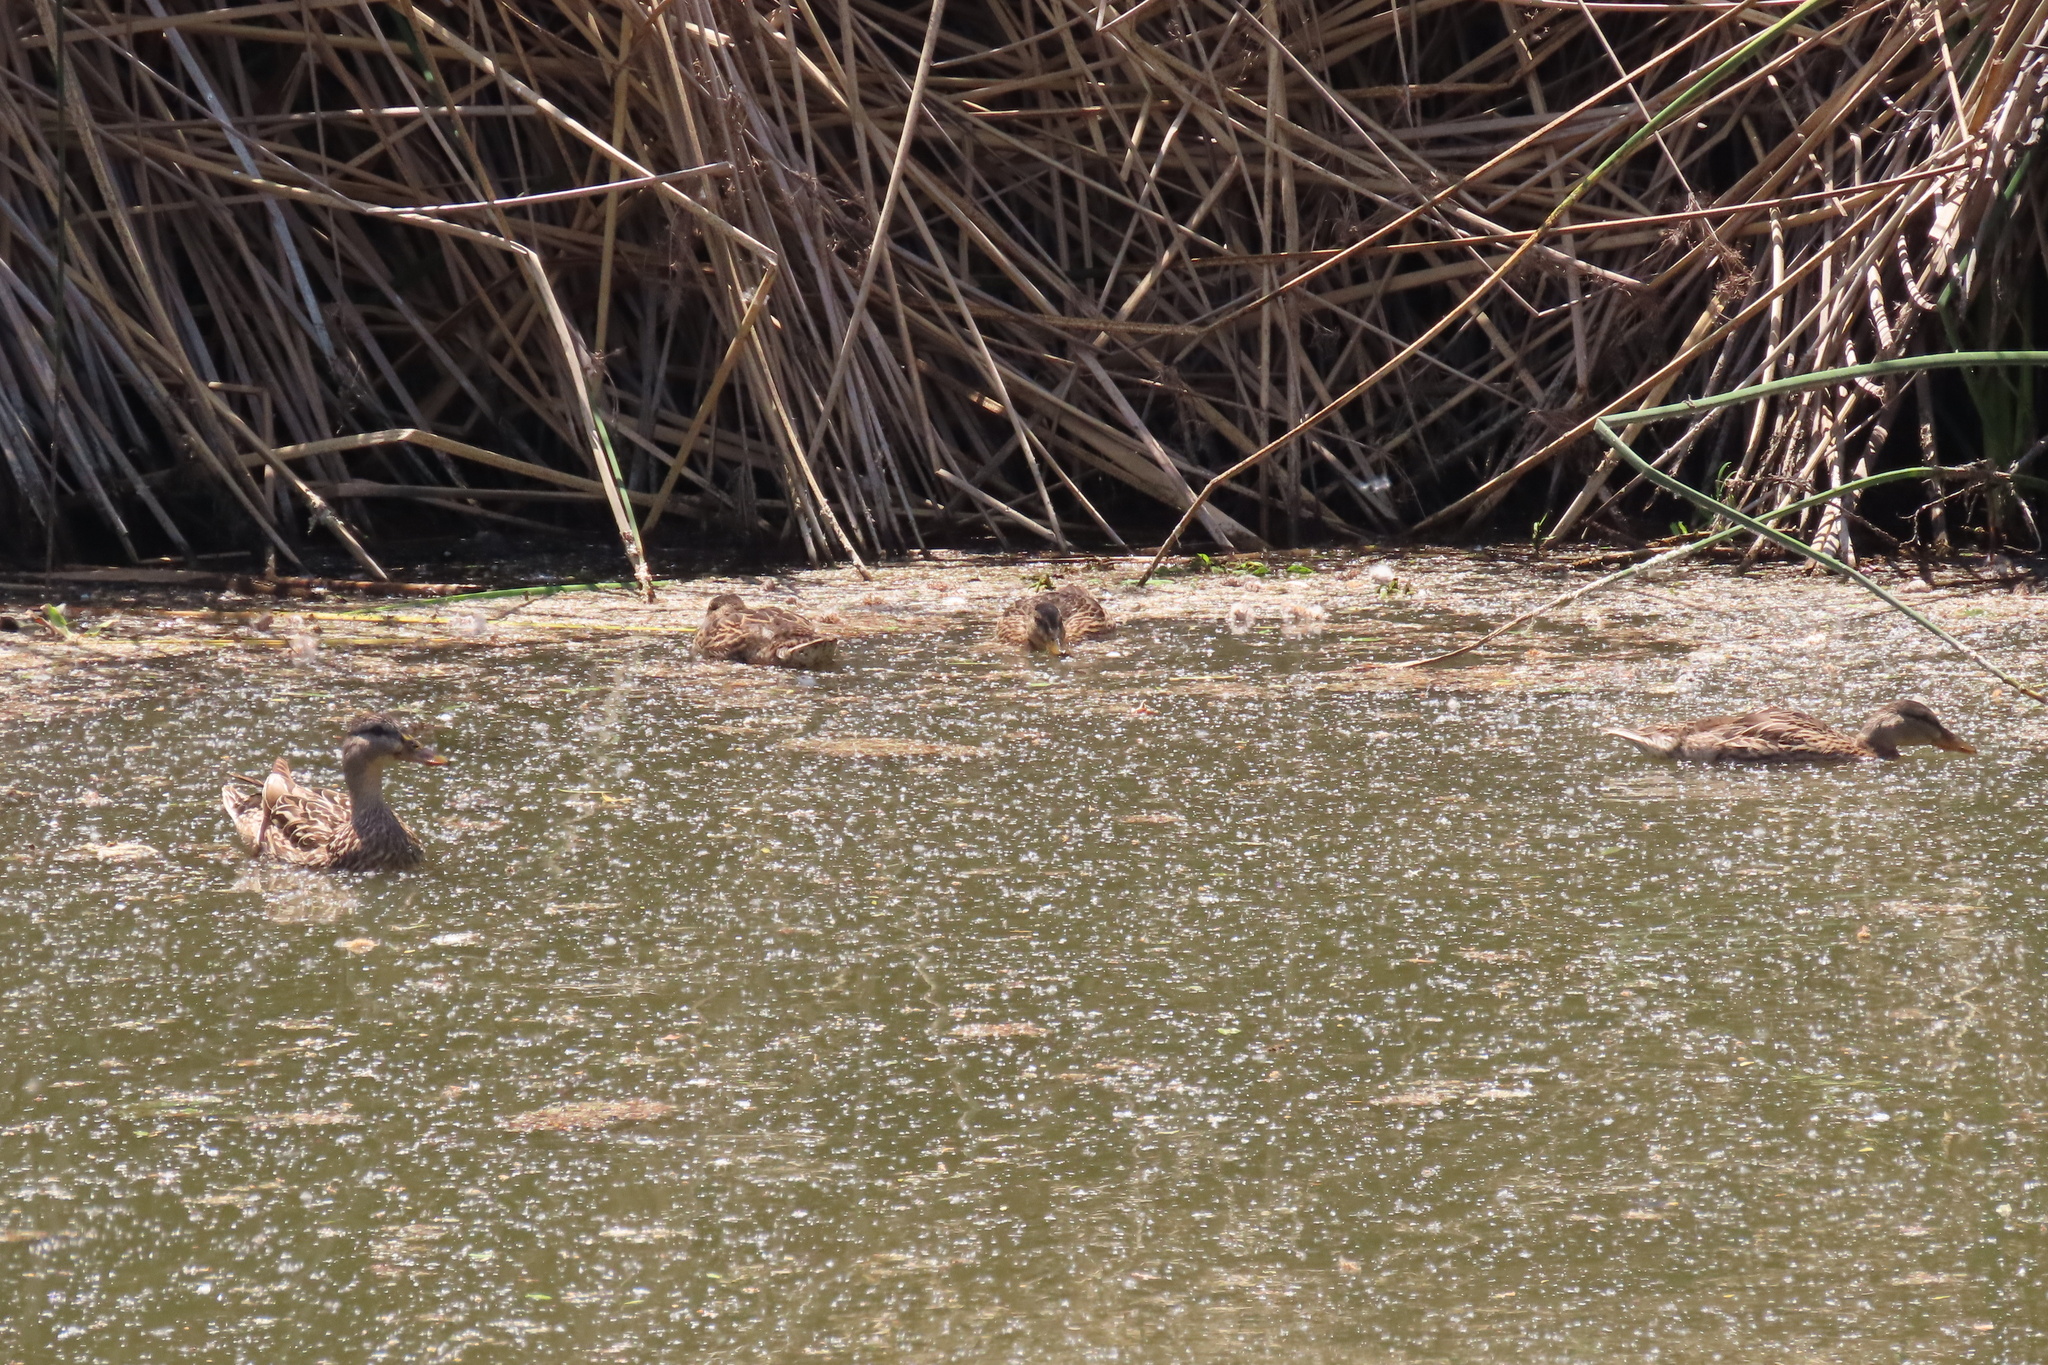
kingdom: Animalia
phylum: Chordata
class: Aves
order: Anseriformes
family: Anatidae
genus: Anas
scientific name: Anas platyrhynchos
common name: Mallard
